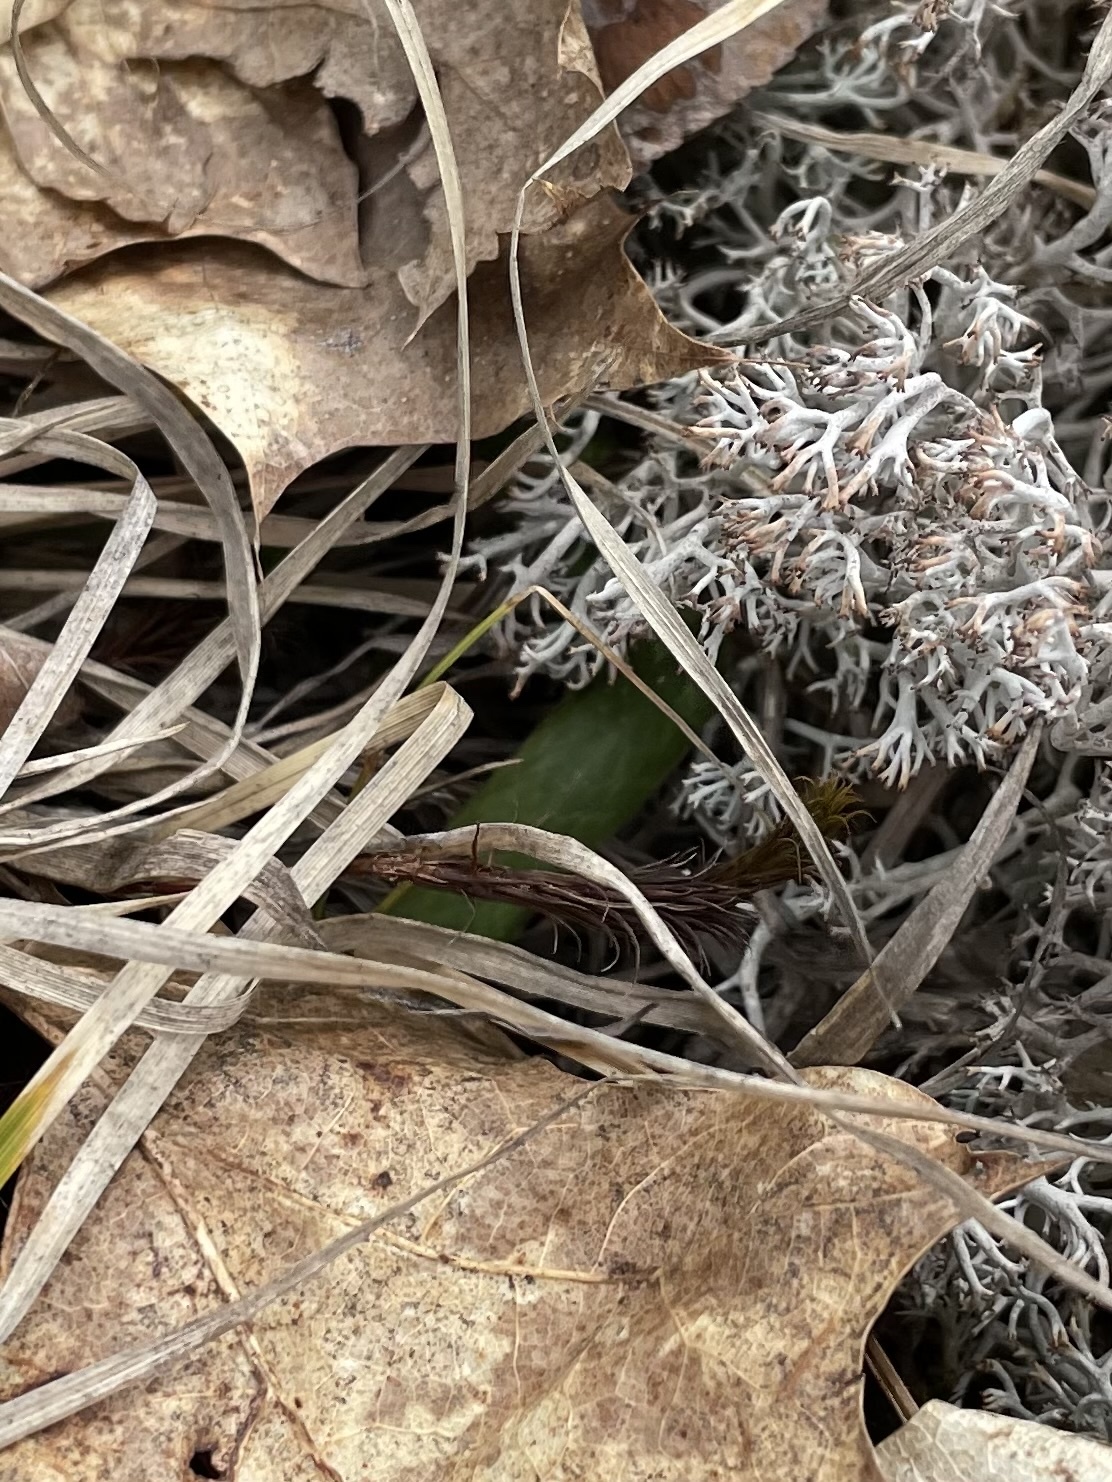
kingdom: Animalia
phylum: Chordata
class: Squamata
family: Colubridae
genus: Opheodrys
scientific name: Opheodrys vernalis
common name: Smooth green snake
